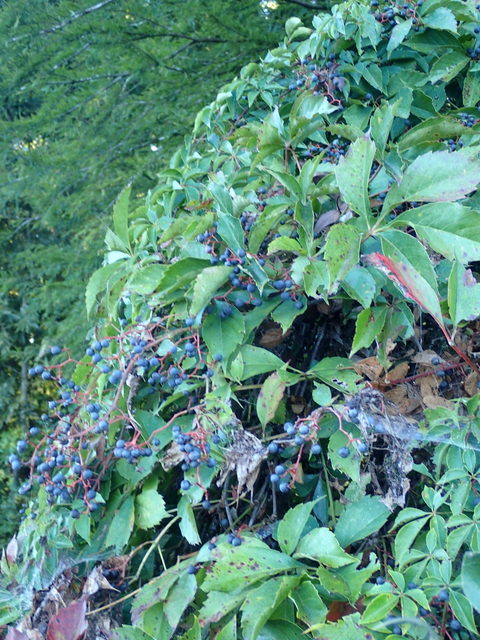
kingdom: Plantae
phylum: Tracheophyta
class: Magnoliopsida
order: Vitales
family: Vitaceae
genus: Parthenocissus
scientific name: Parthenocissus quinquefolia
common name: Virginia-creeper
